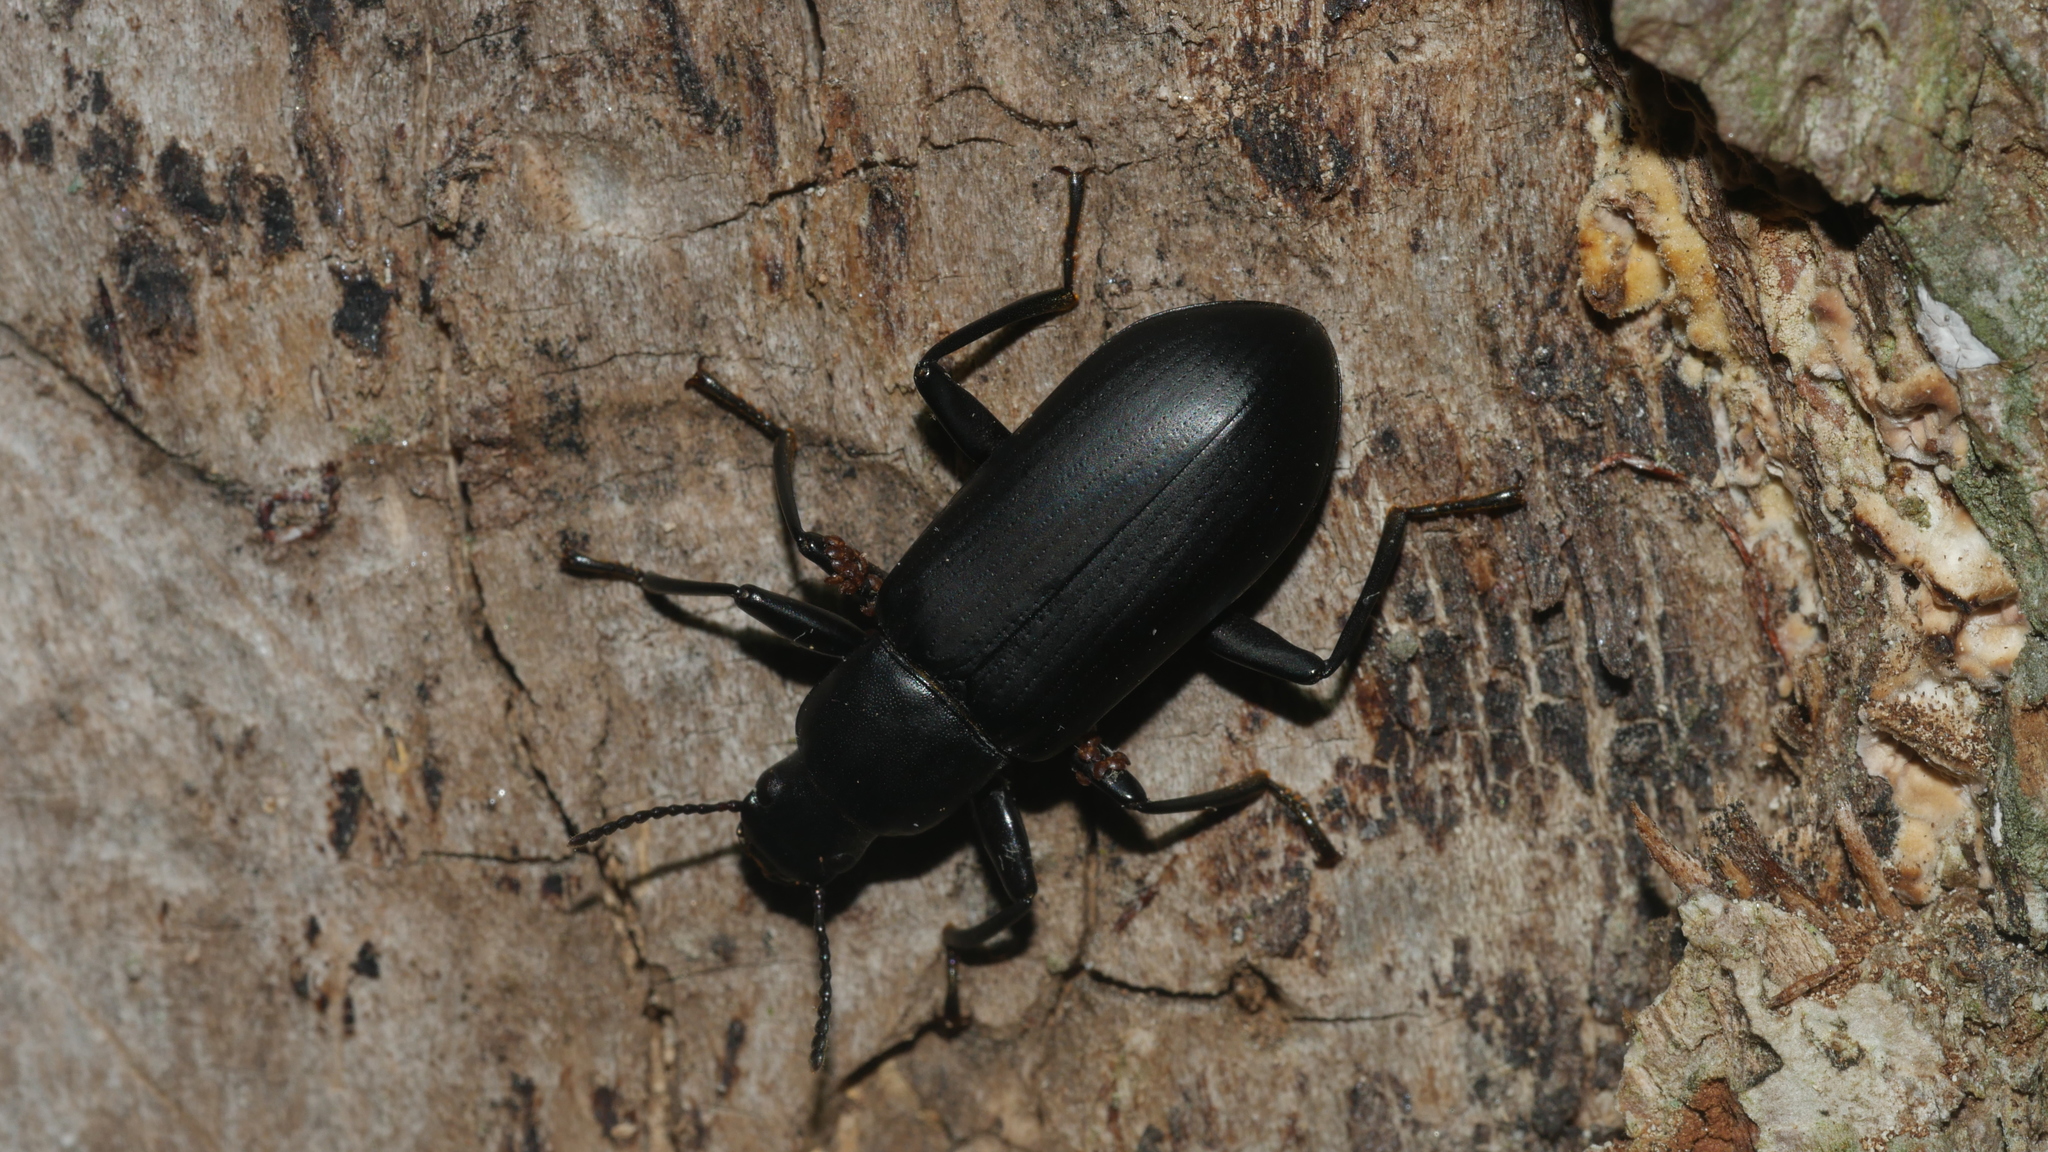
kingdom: Animalia
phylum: Arthropoda
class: Insecta
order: Coleoptera
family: Tenebrionidae
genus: Alobates
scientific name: Alobates
